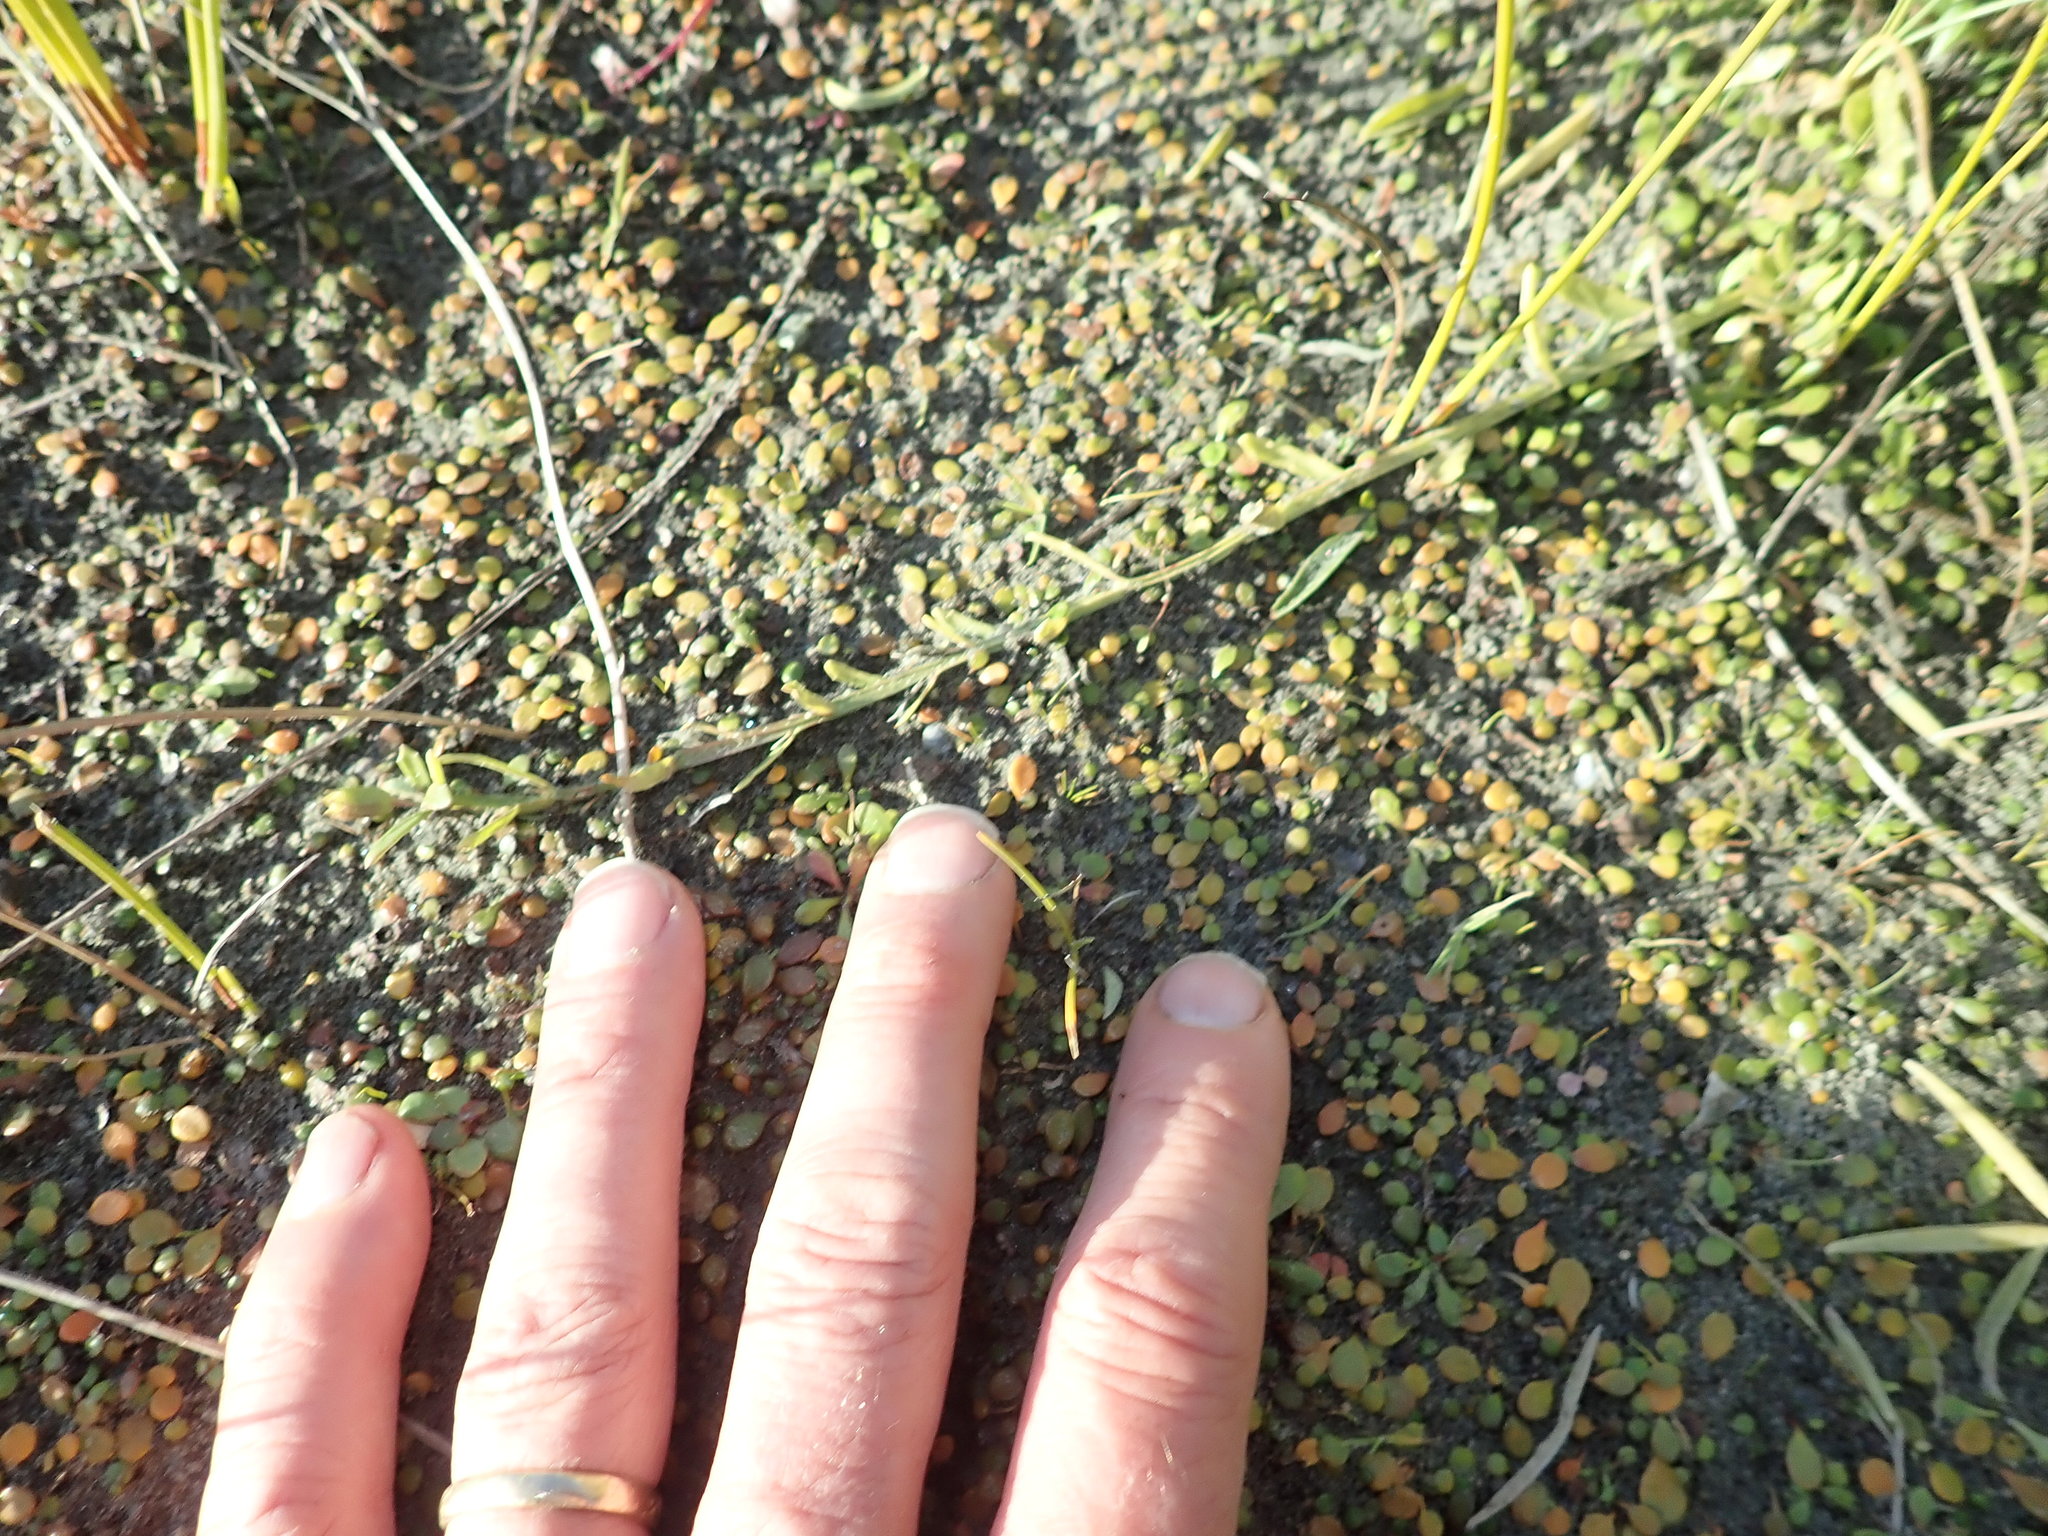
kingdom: Plantae
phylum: Tracheophyta
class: Magnoliopsida
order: Asterales
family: Campanulaceae
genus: Lobelia
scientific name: Lobelia anceps
